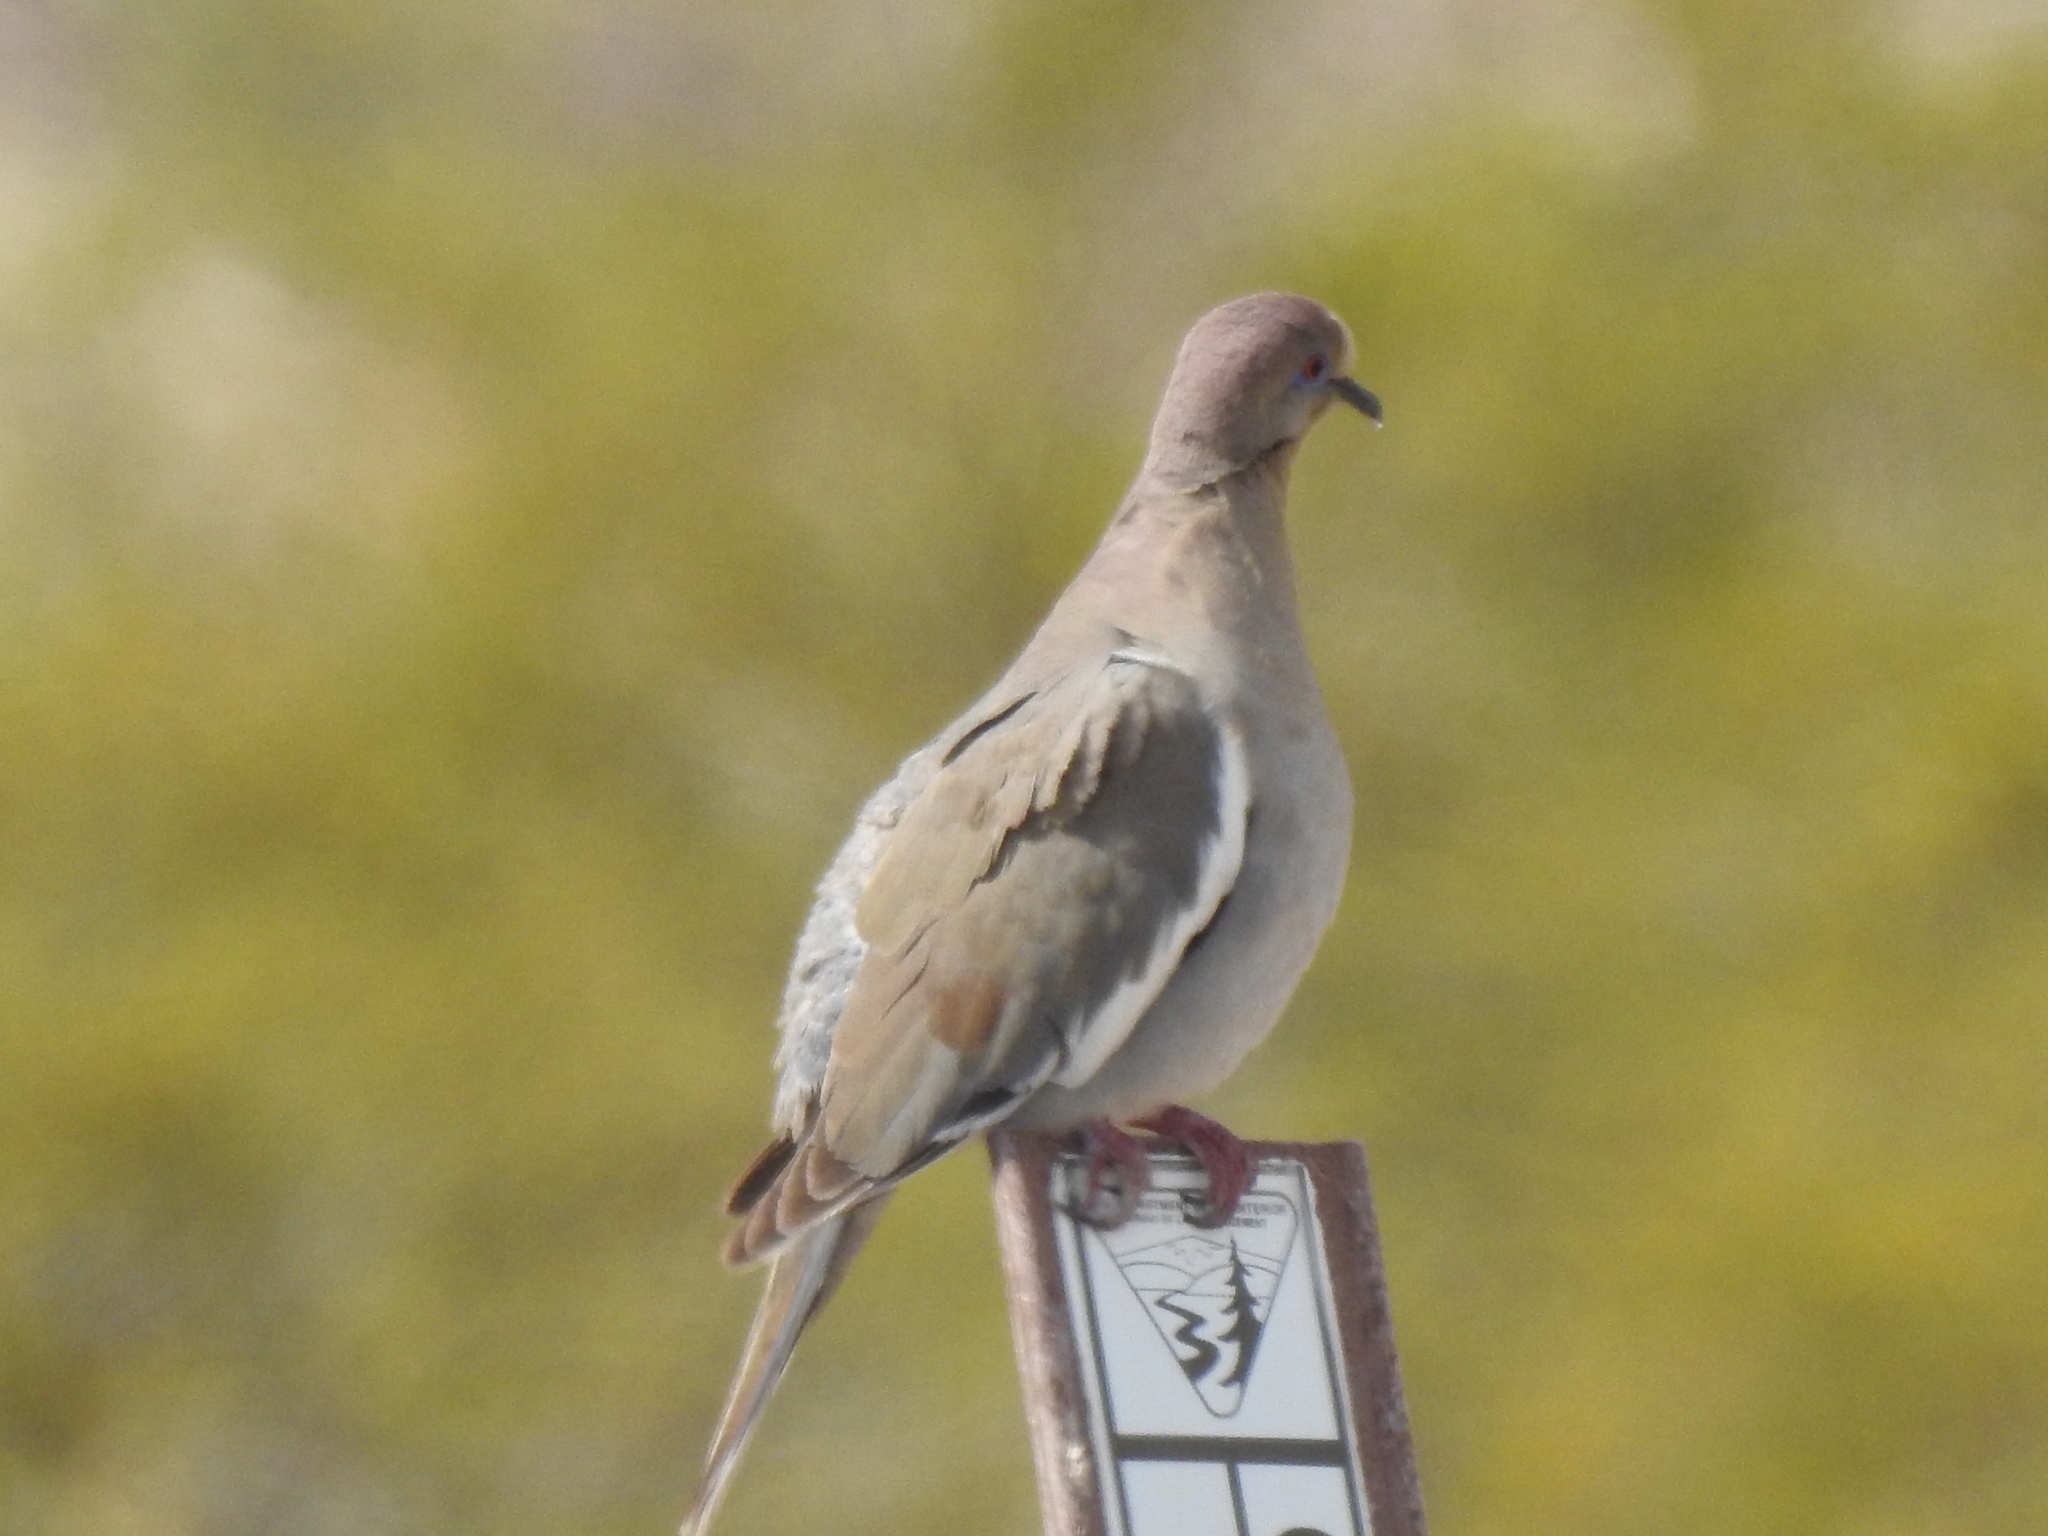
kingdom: Animalia
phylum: Chordata
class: Aves
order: Columbiformes
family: Columbidae
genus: Zenaida
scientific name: Zenaida asiatica
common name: White-winged dove
